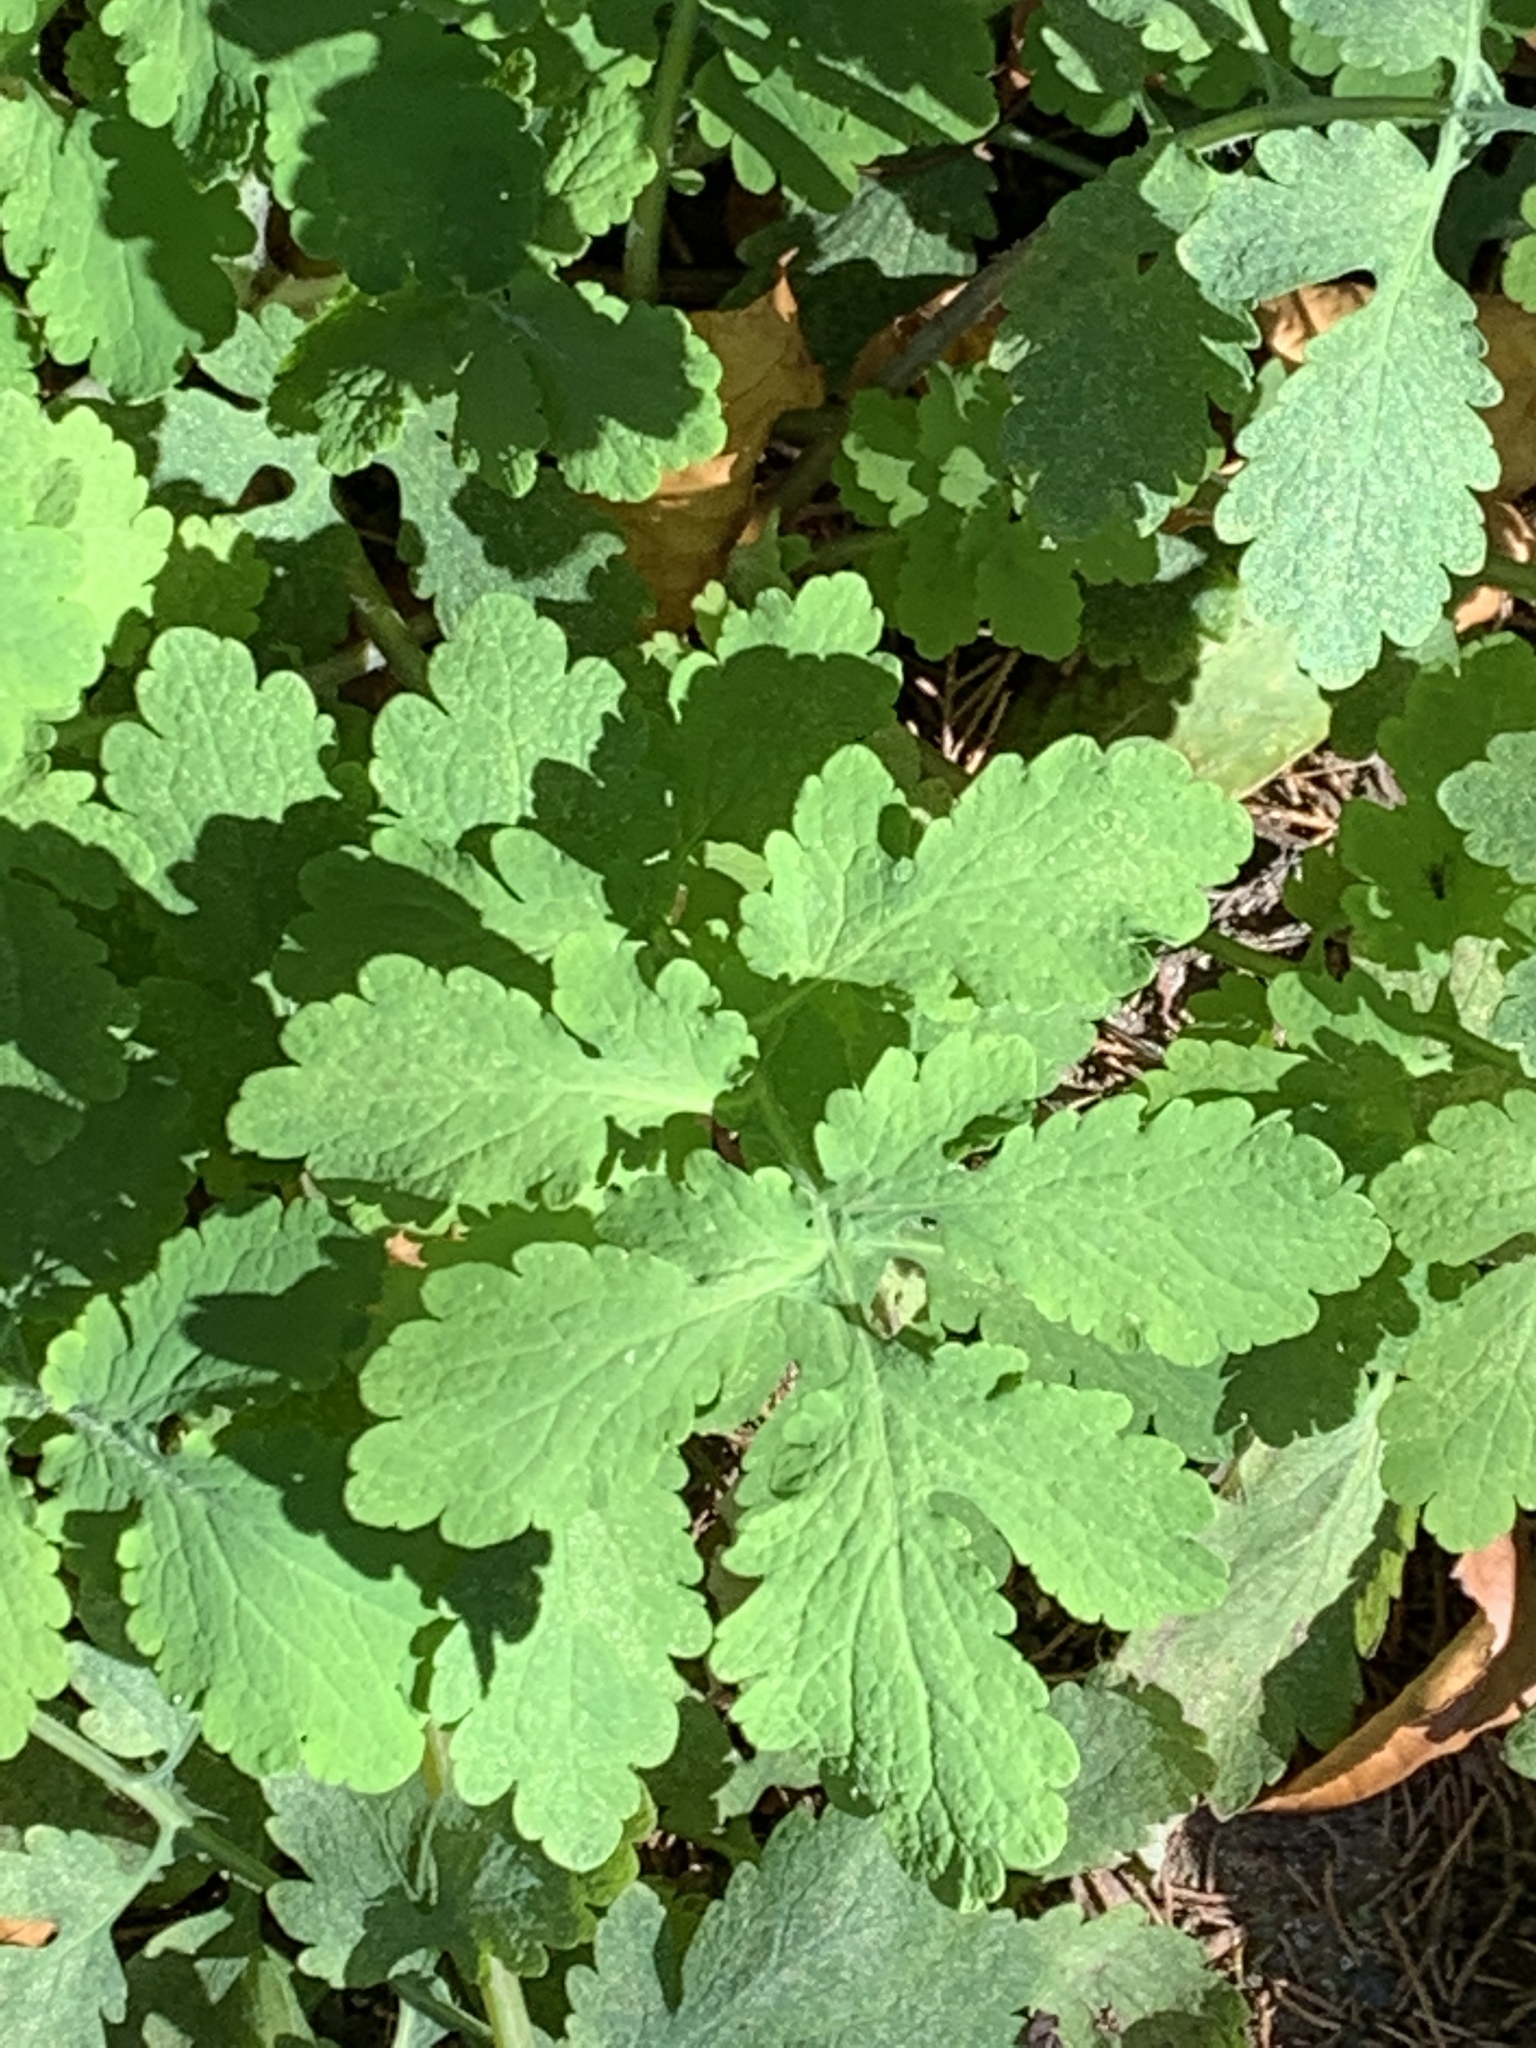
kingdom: Plantae
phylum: Tracheophyta
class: Magnoliopsida
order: Ranunculales
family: Papaveraceae
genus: Chelidonium
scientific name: Chelidonium majus
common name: Greater celandine
